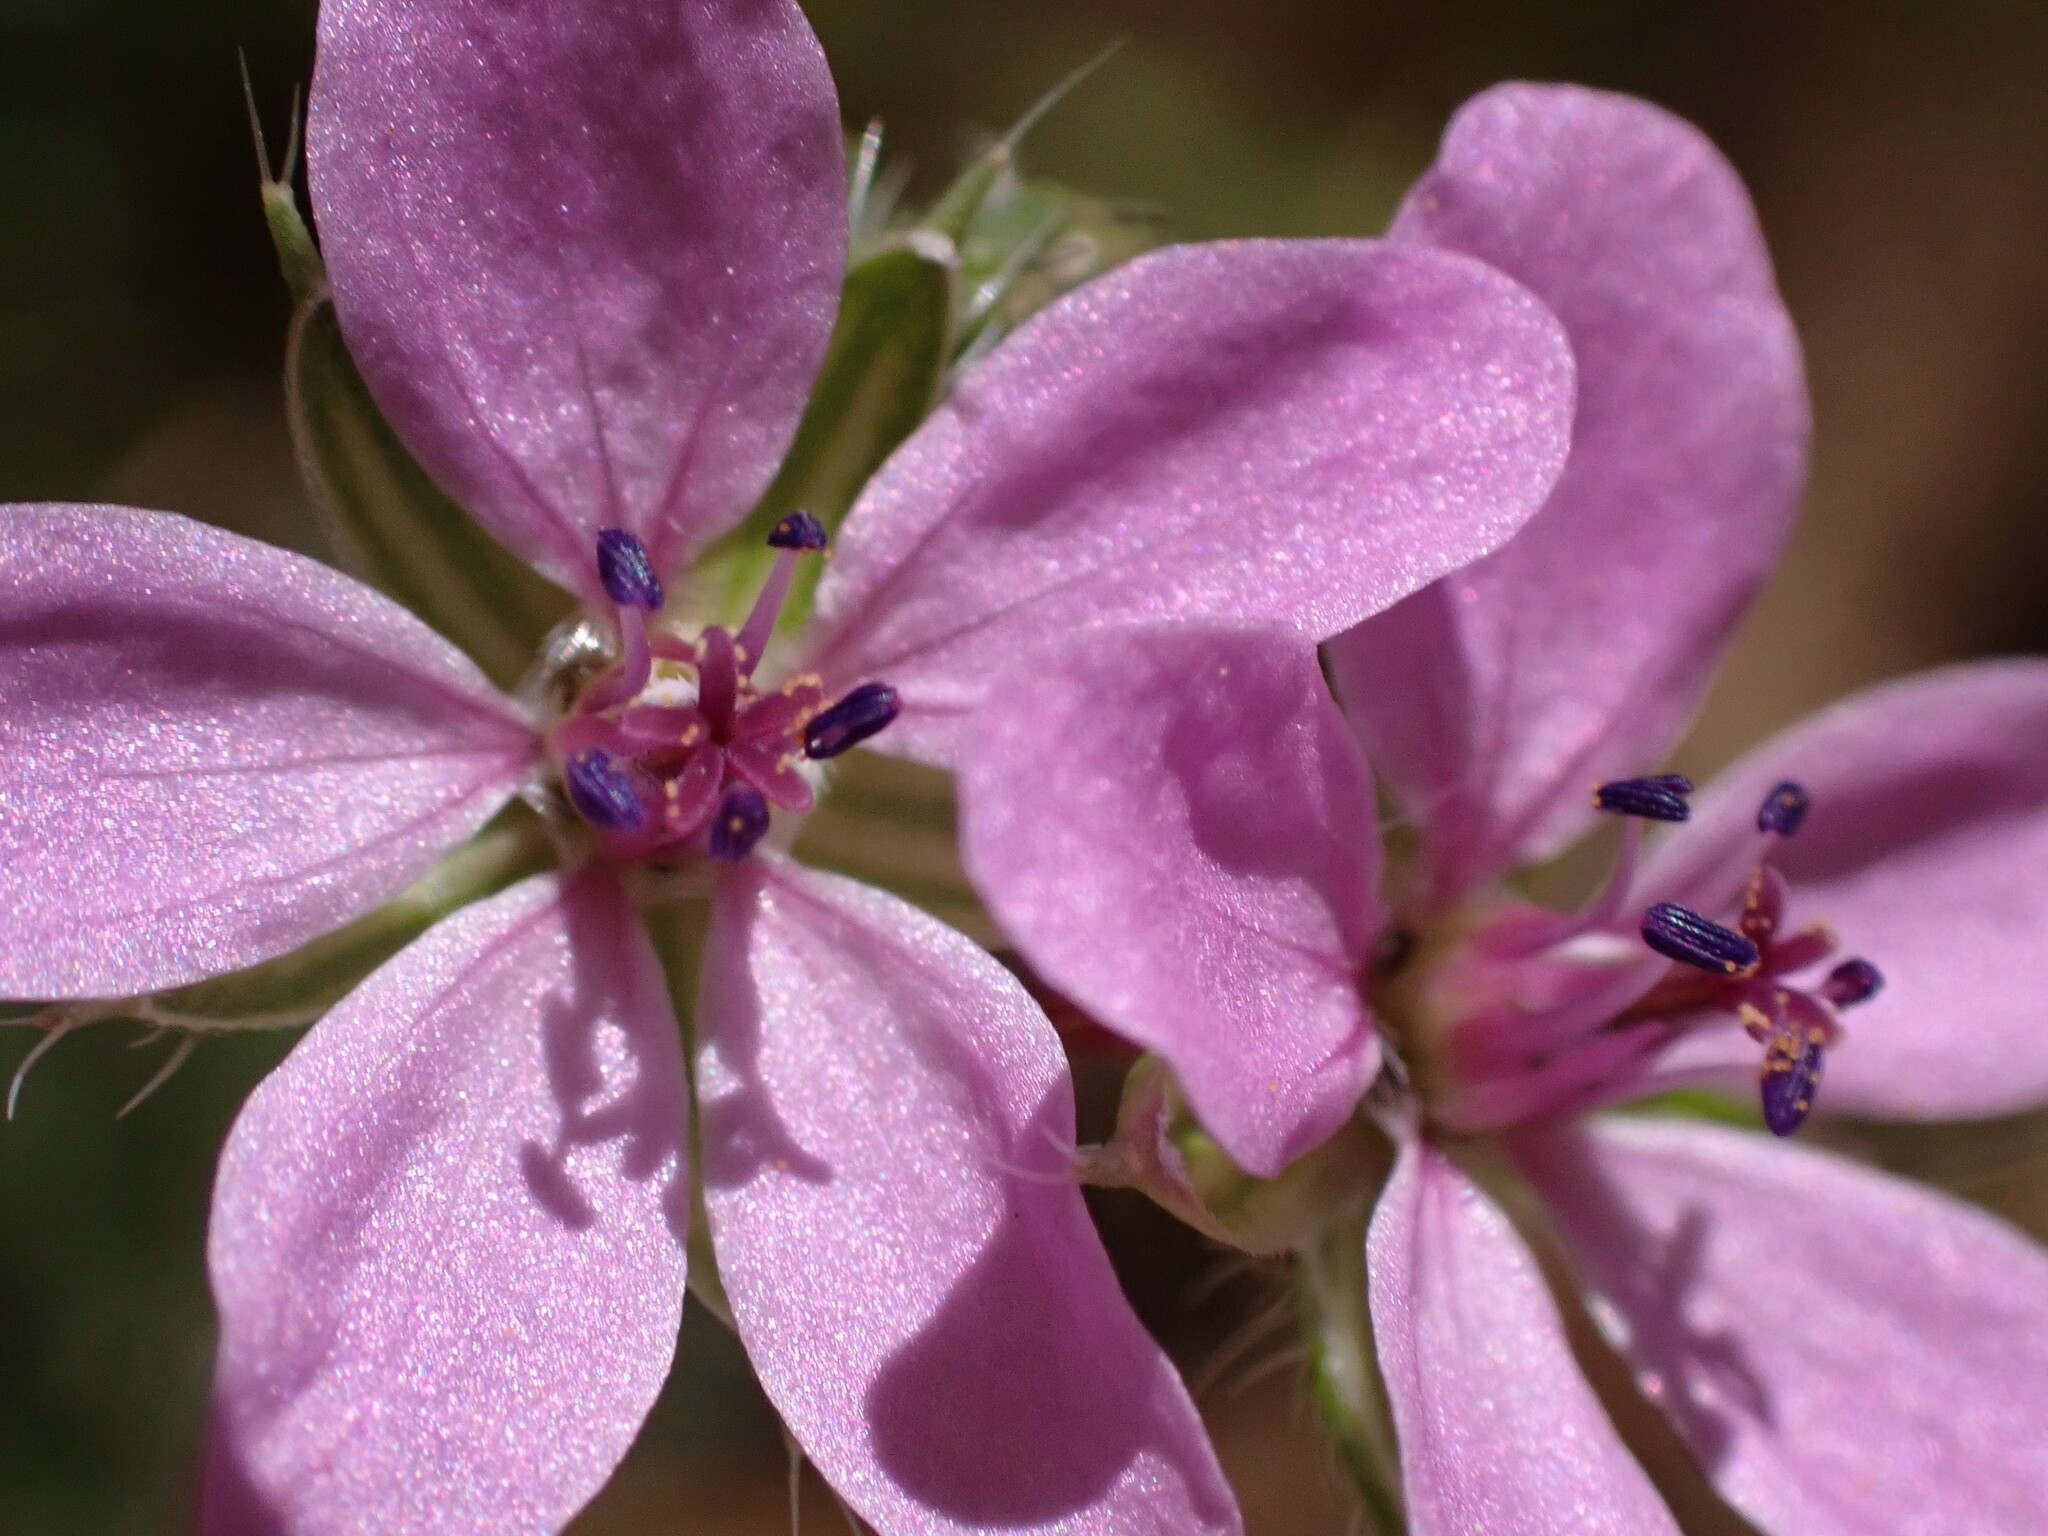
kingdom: Plantae
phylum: Tracheophyta
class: Magnoliopsida
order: Geraniales
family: Geraniaceae
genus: Erodium
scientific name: Erodium cicutarium
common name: Common stork's-bill
